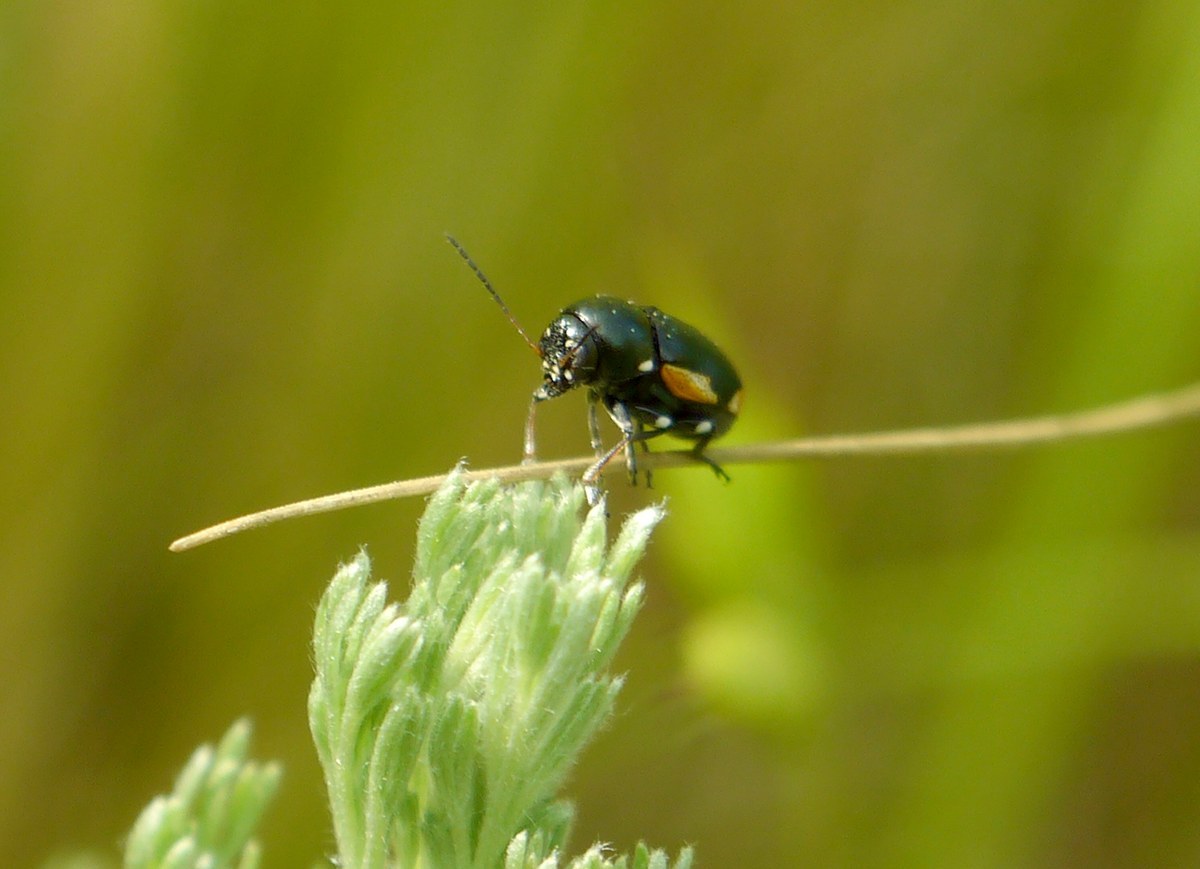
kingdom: Animalia
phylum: Arthropoda
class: Insecta
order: Coleoptera
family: Chrysomelidae
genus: Macromonycha
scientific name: Macromonycha apicalis
